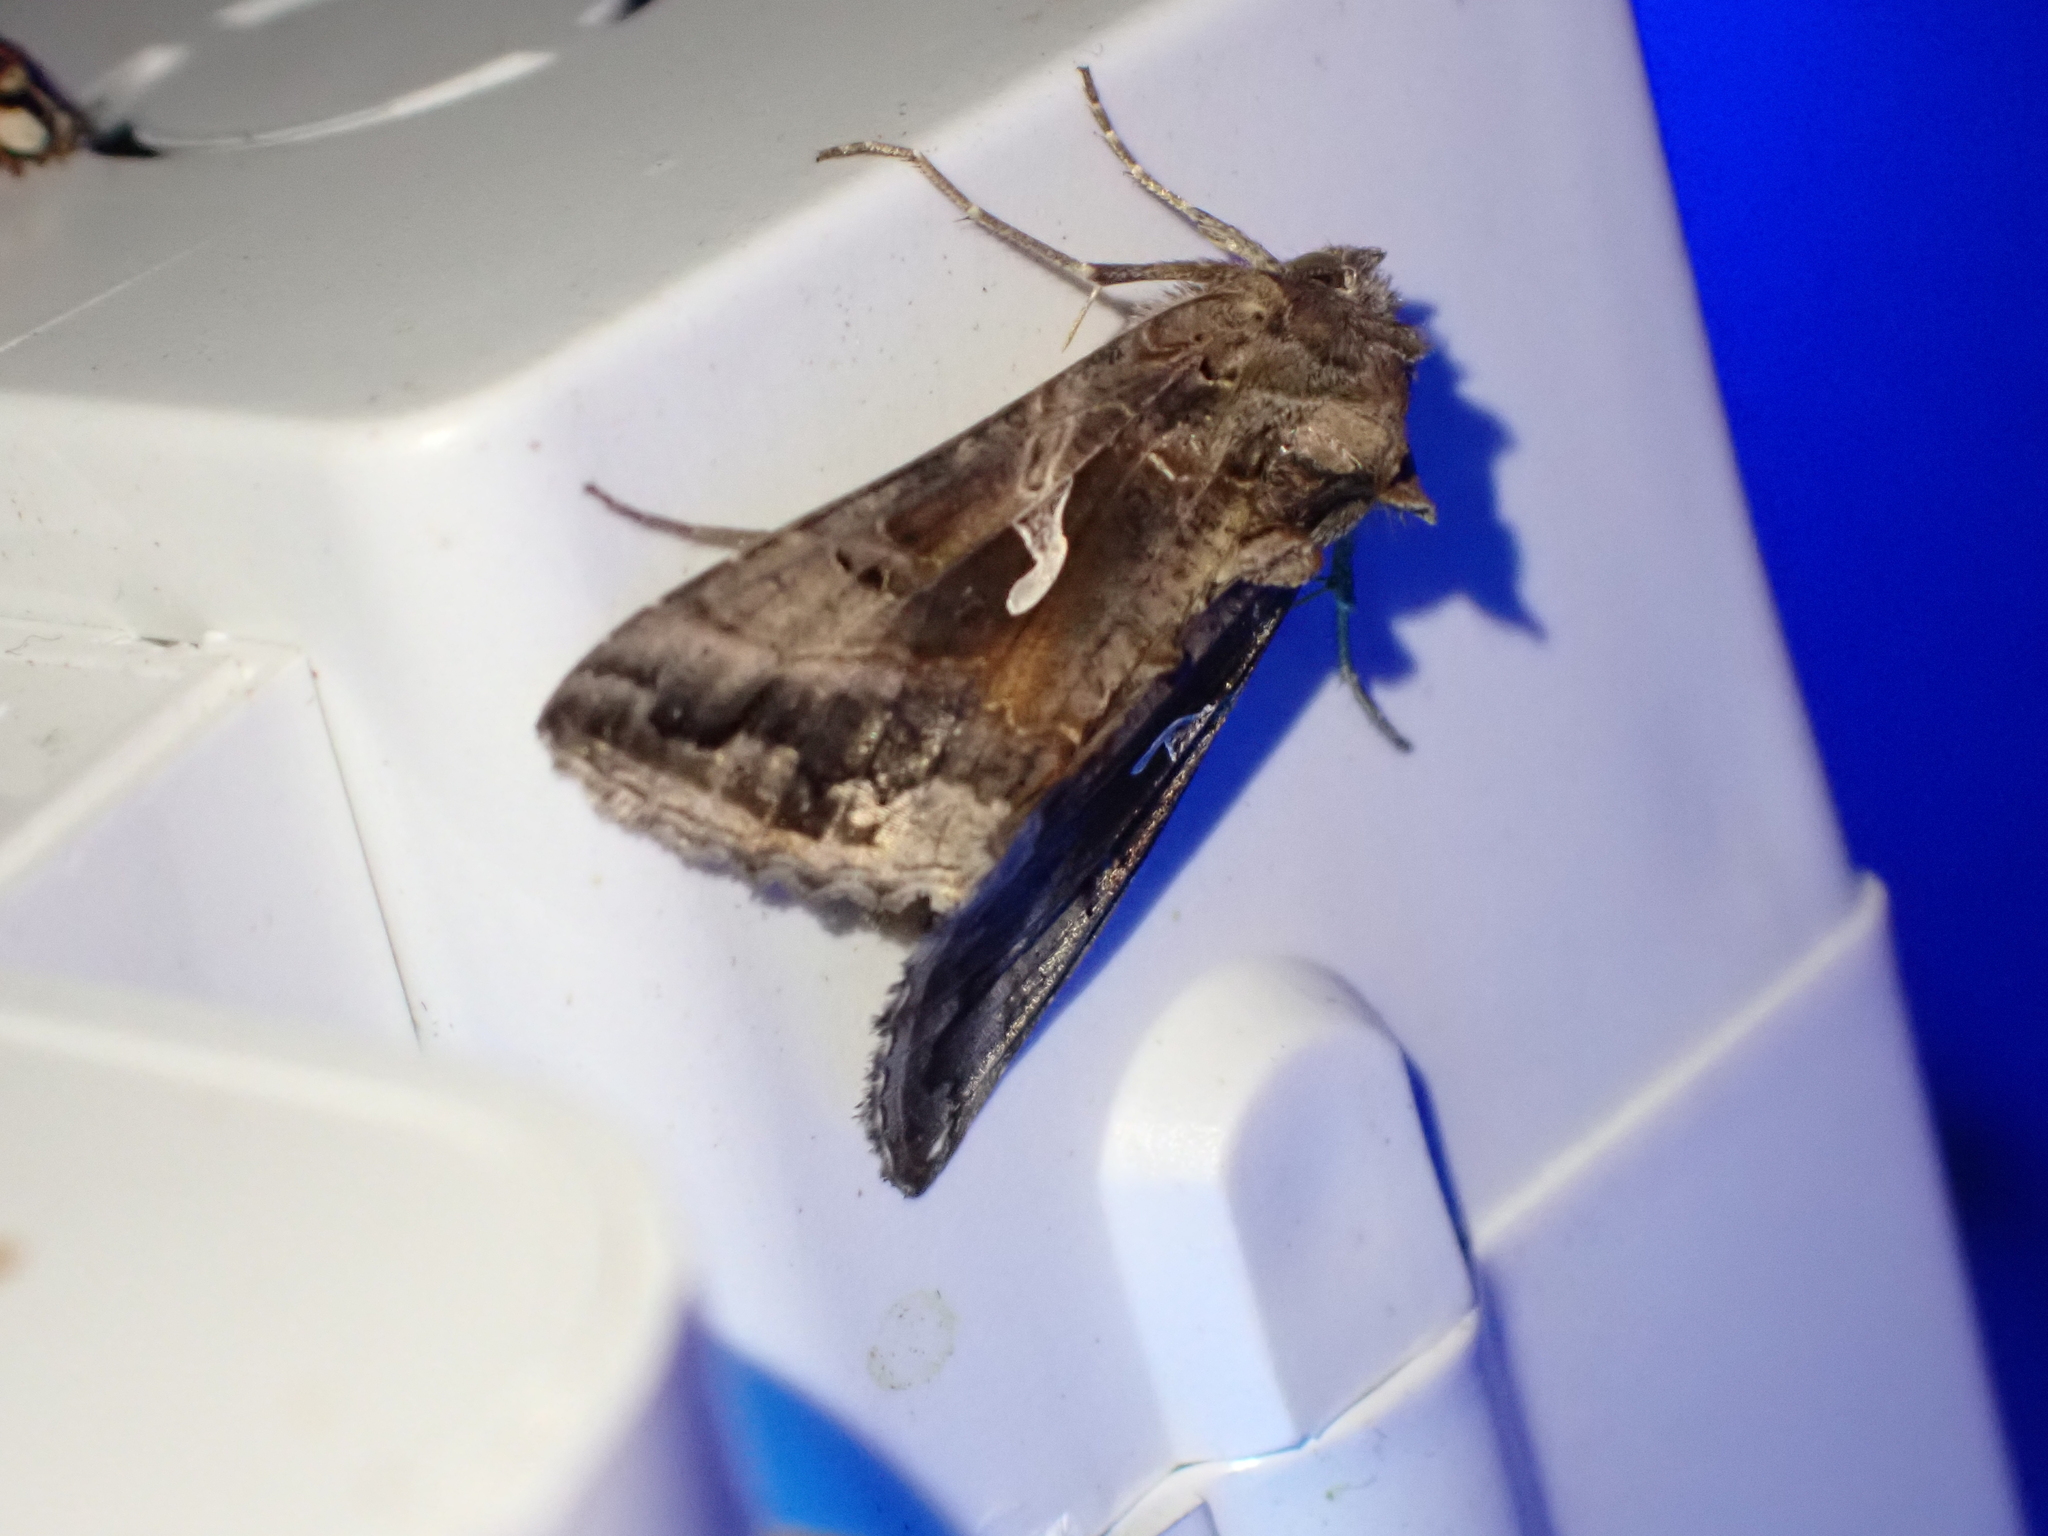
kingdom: Animalia
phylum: Arthropoda
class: Insecta
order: Lepidoptera
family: Noctuidae
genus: Autographa
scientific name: Autographa gamma
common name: Silver y
